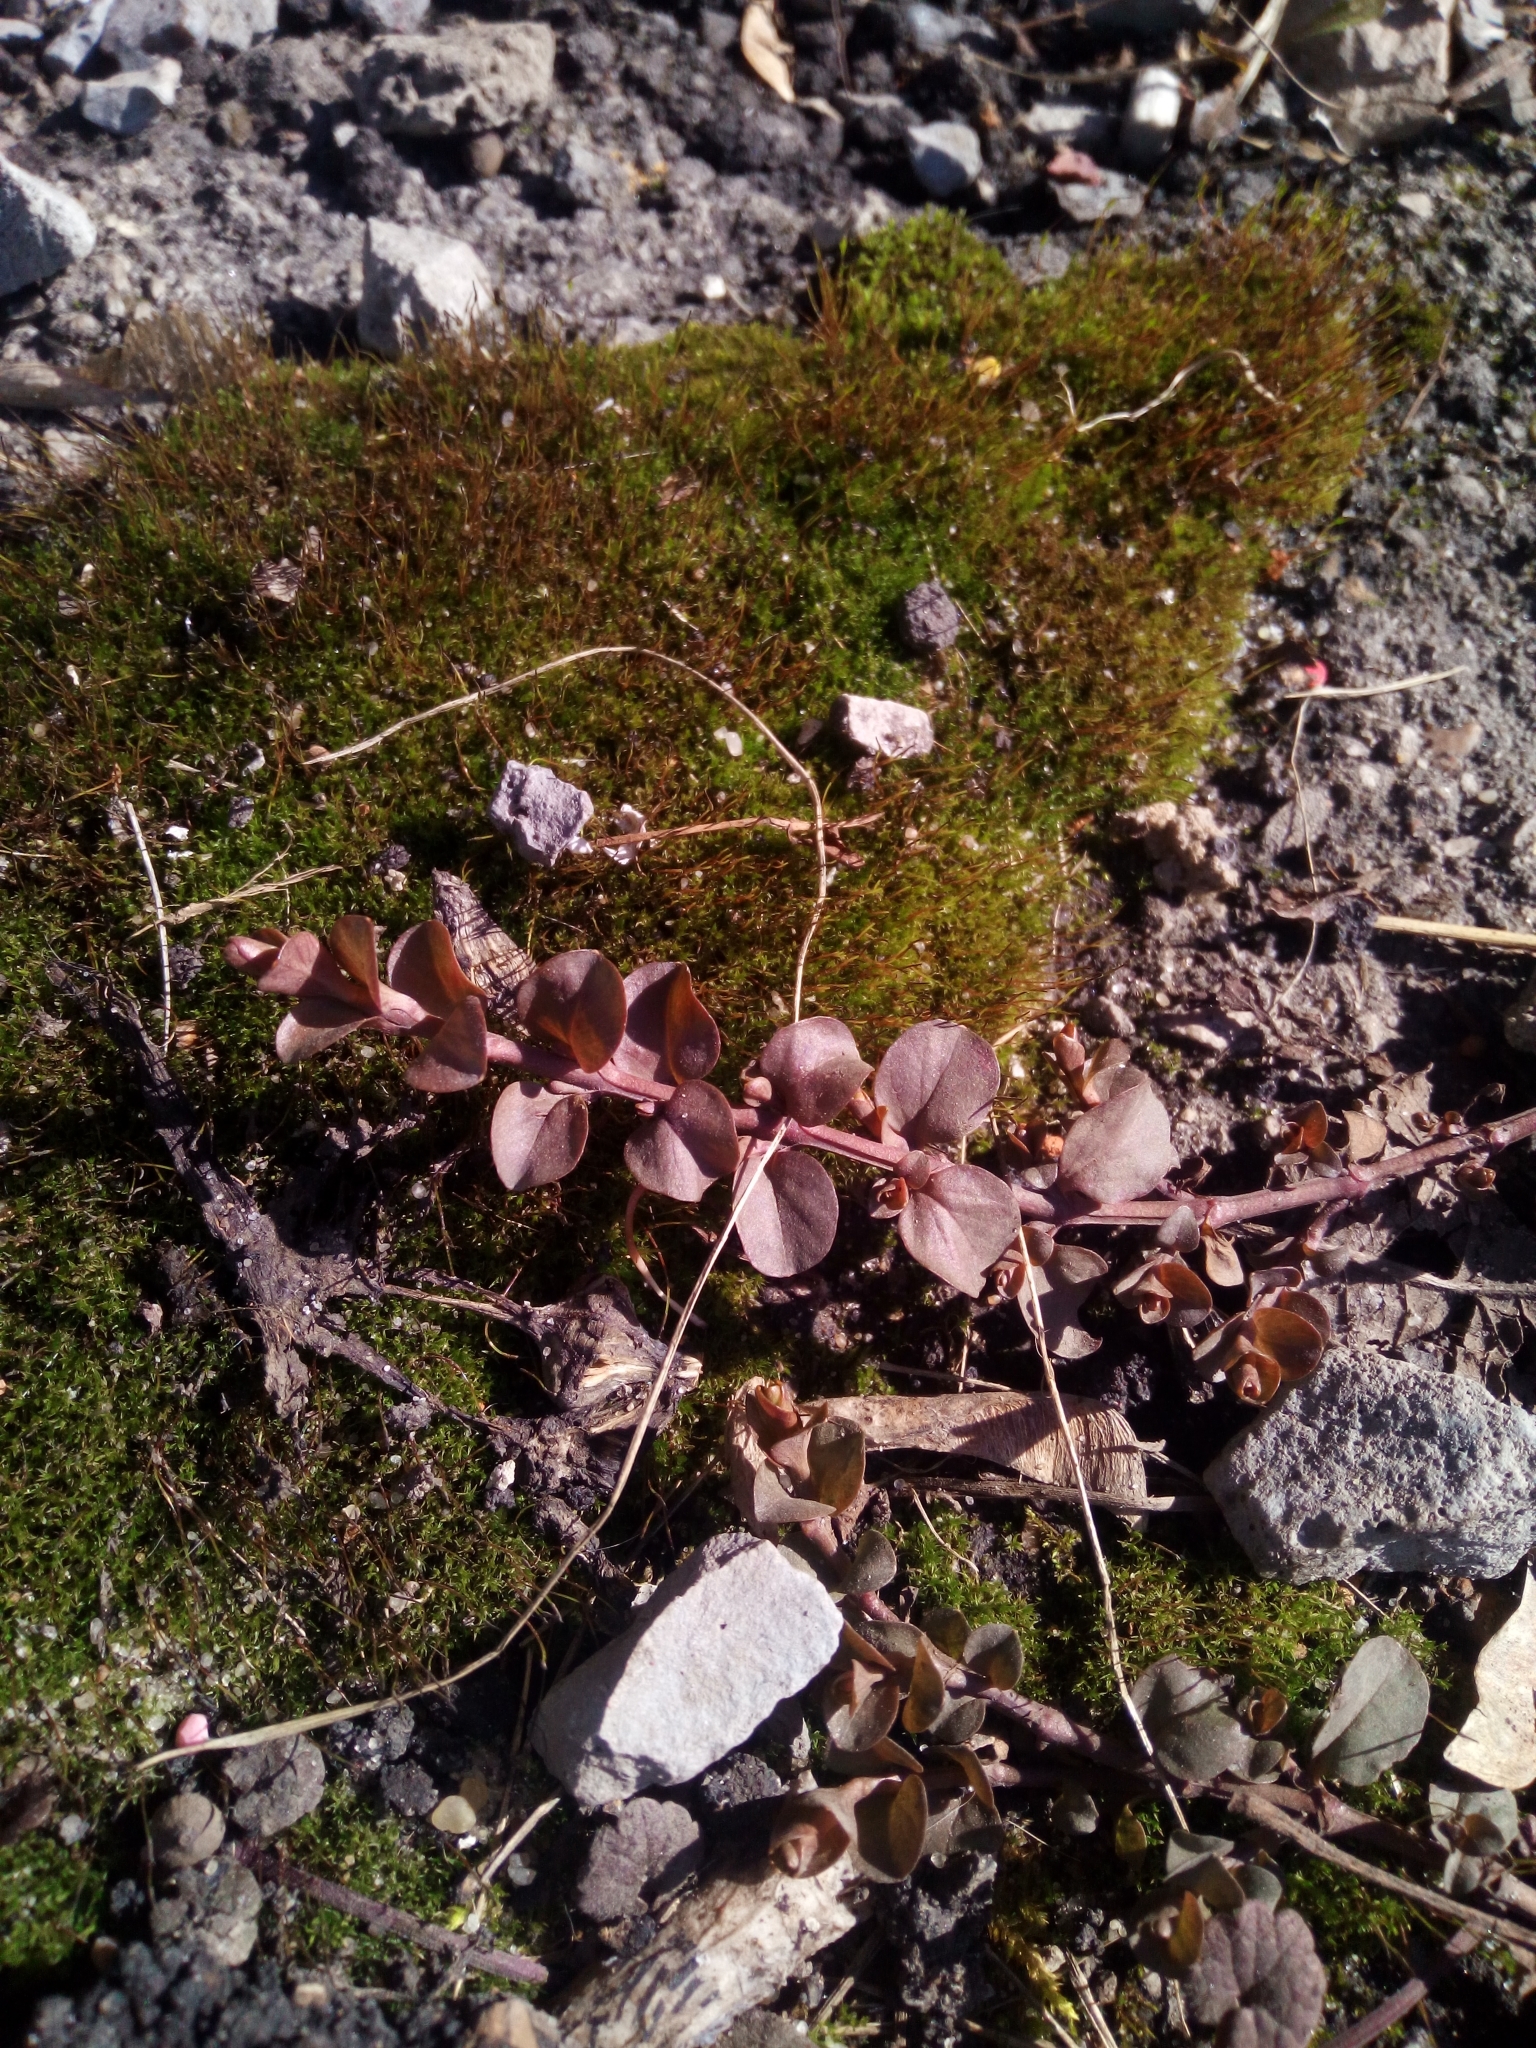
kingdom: Plantae
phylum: Tracheophyta
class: Magnoliopsida
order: Ericales
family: Primulaceae
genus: Lysimachia
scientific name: Lysimachia nummularia
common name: Moneywort
